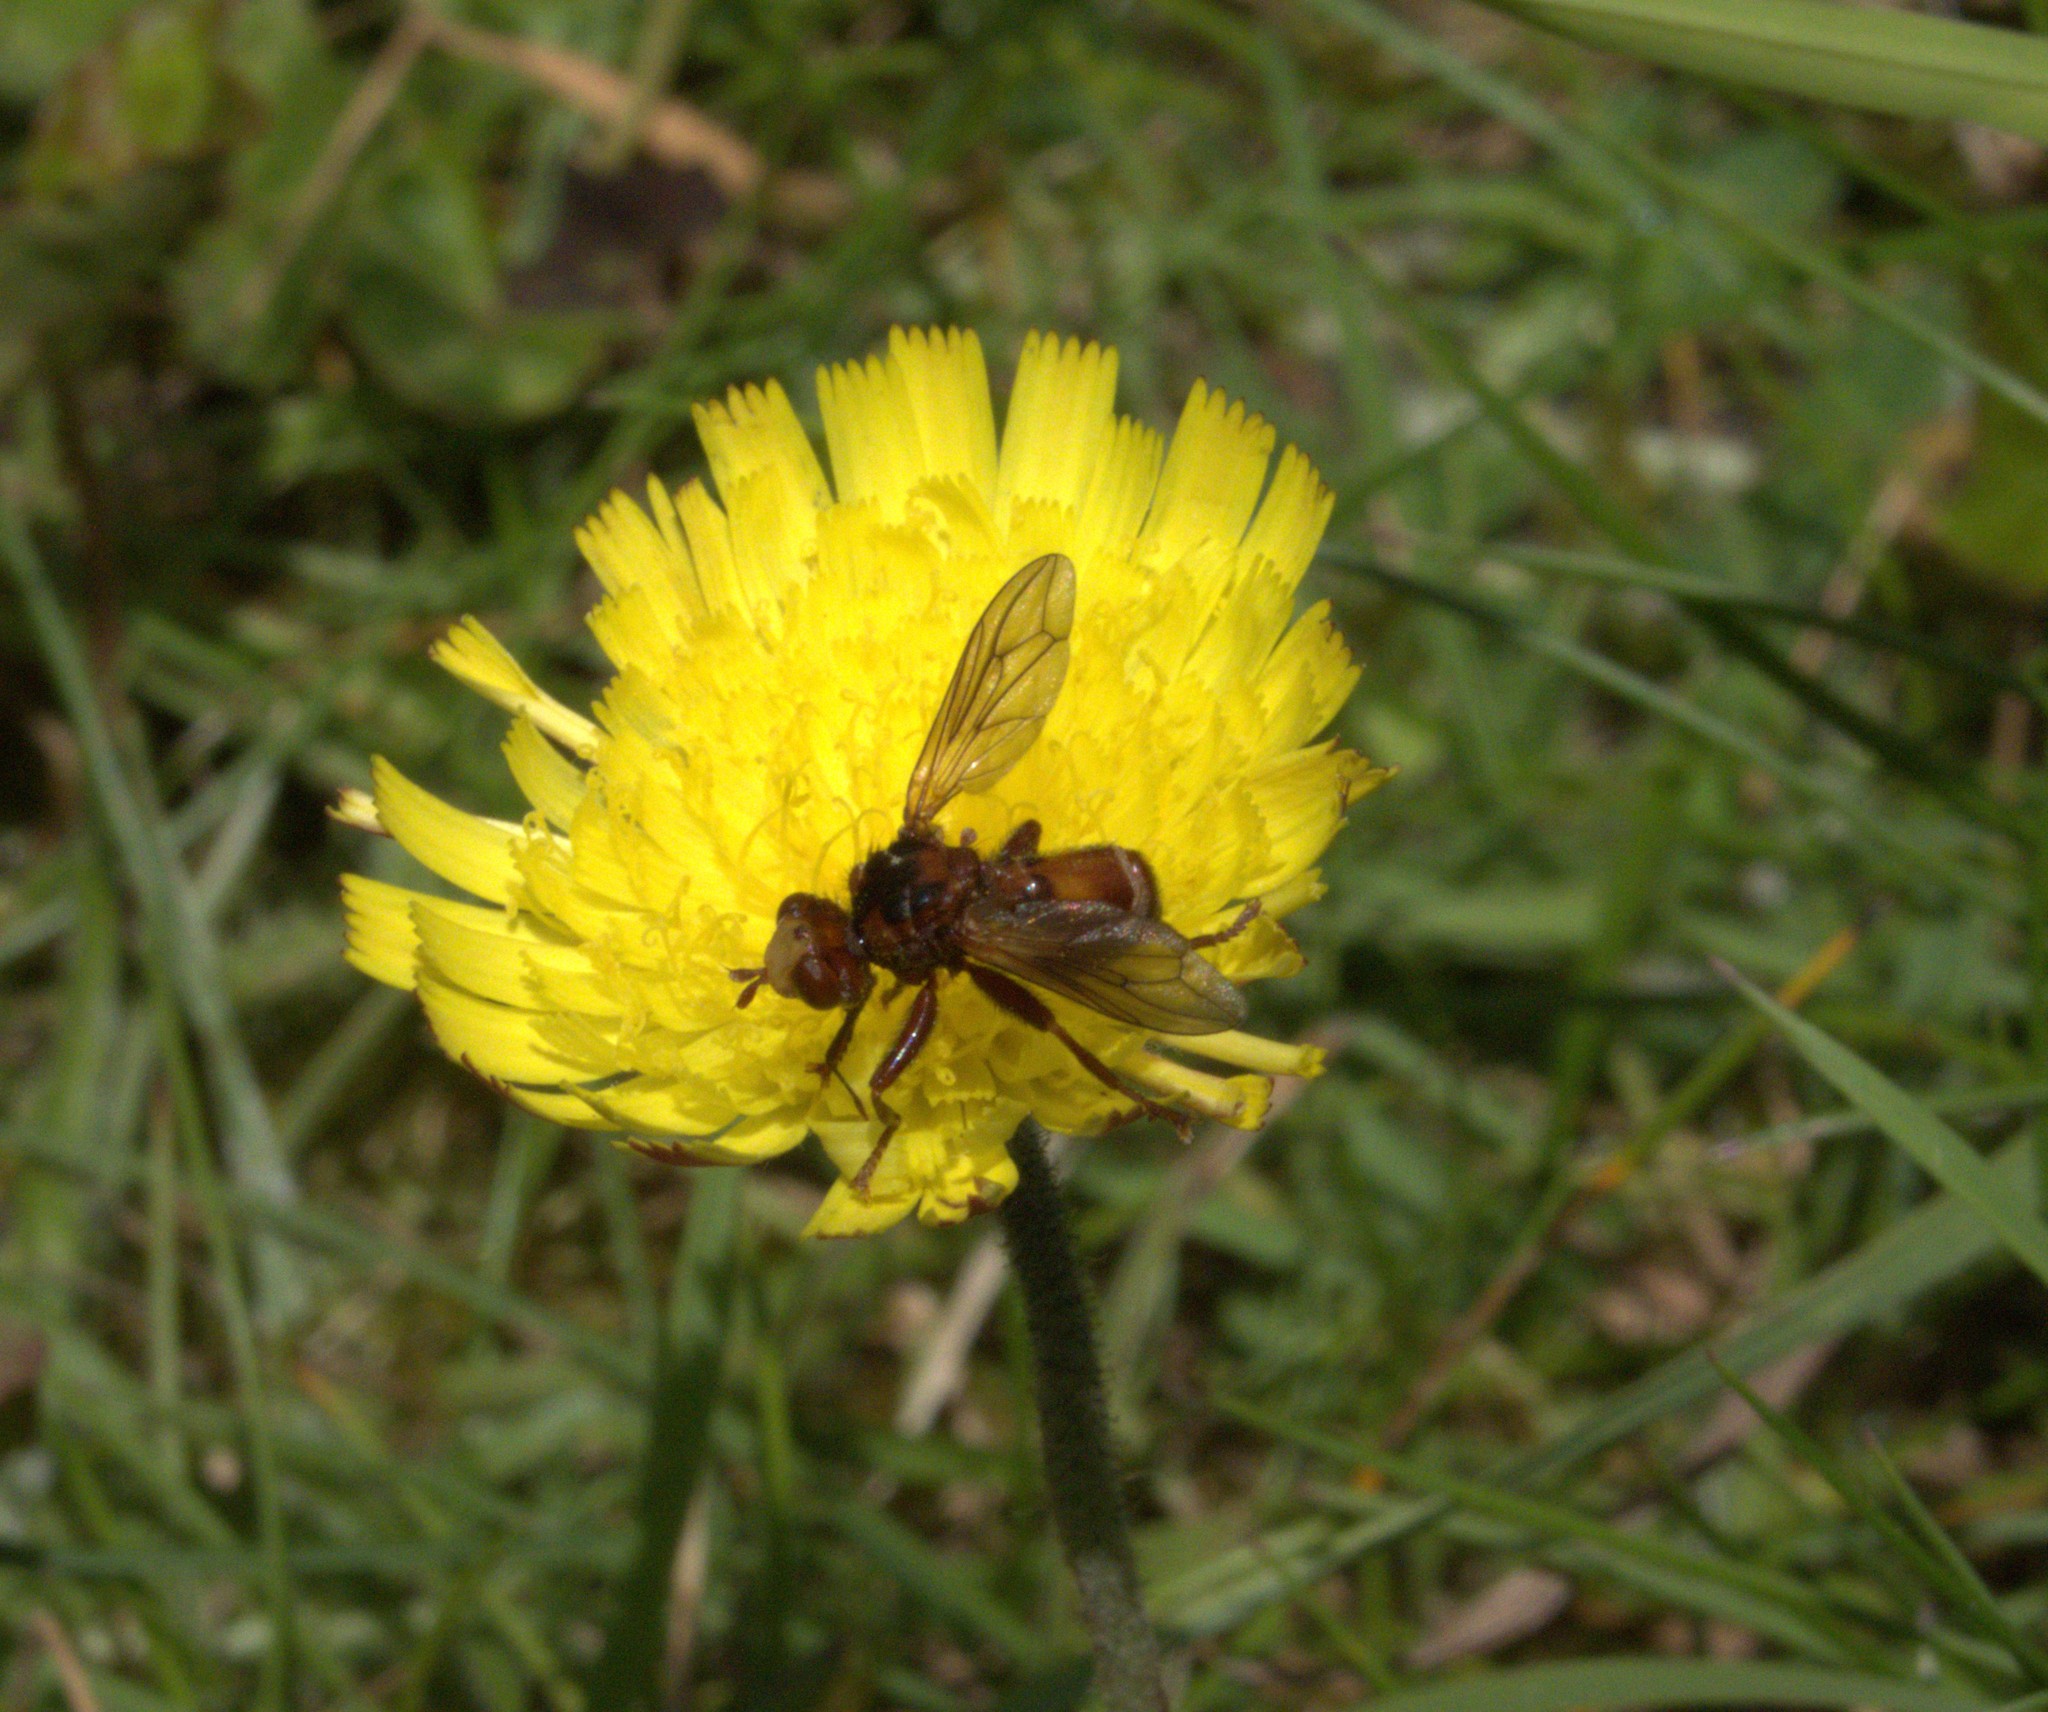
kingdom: Animalia
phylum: Arthropoda
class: Insecta
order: Diptera
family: Conopidae
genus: Sicus
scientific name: Sicus ferrugineus
